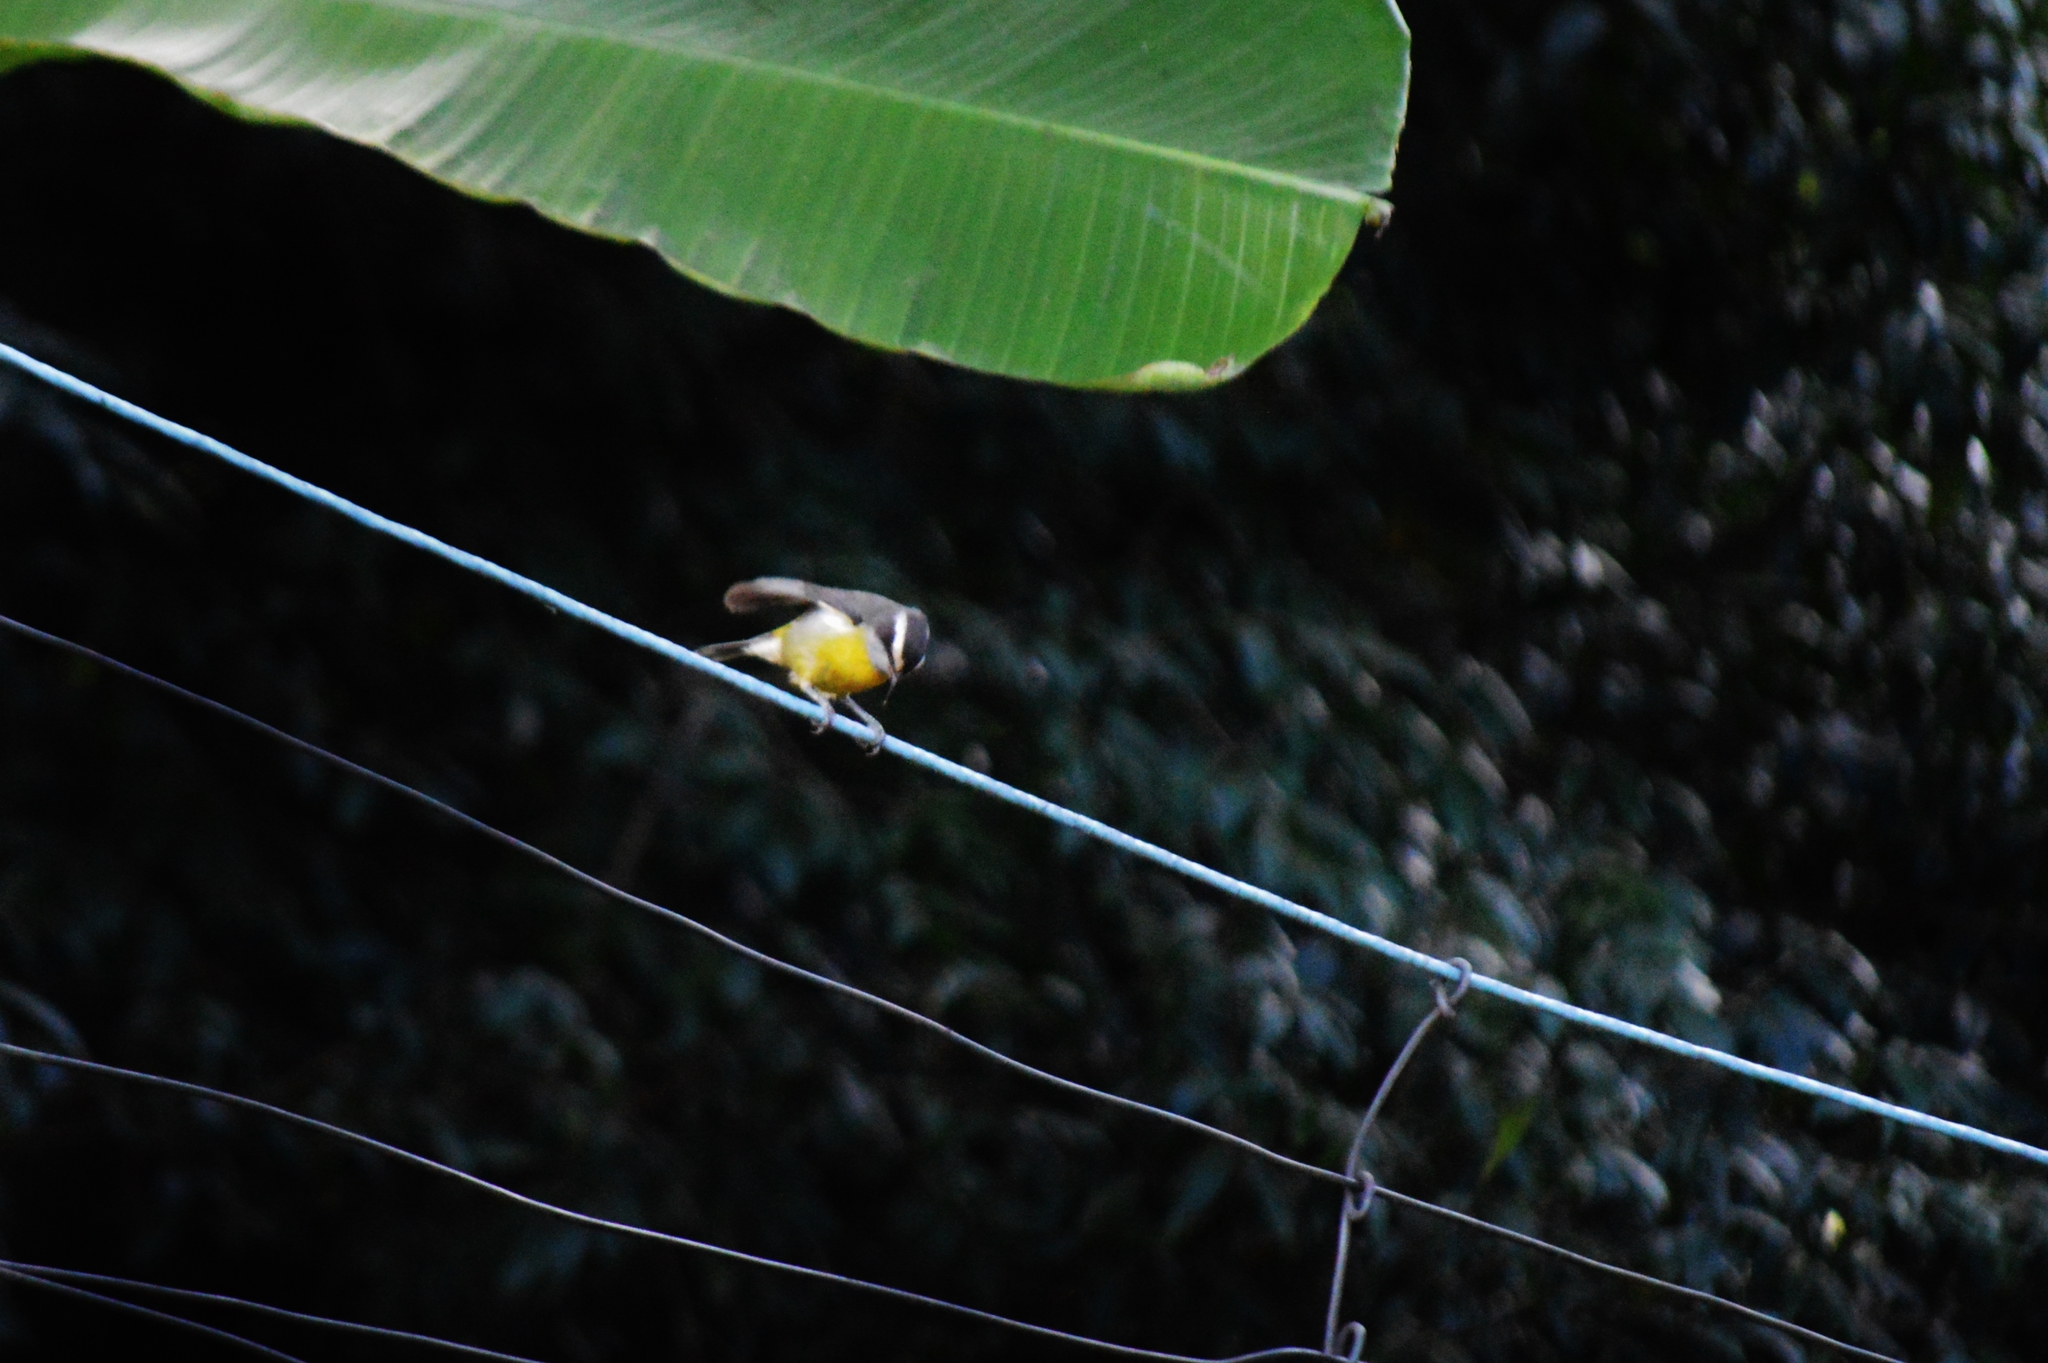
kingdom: Animalia
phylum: Chordata
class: Aves
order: Passeriformes
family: Thraupidae
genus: Coereba
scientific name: Coereba flaveola
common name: Bananaquit
